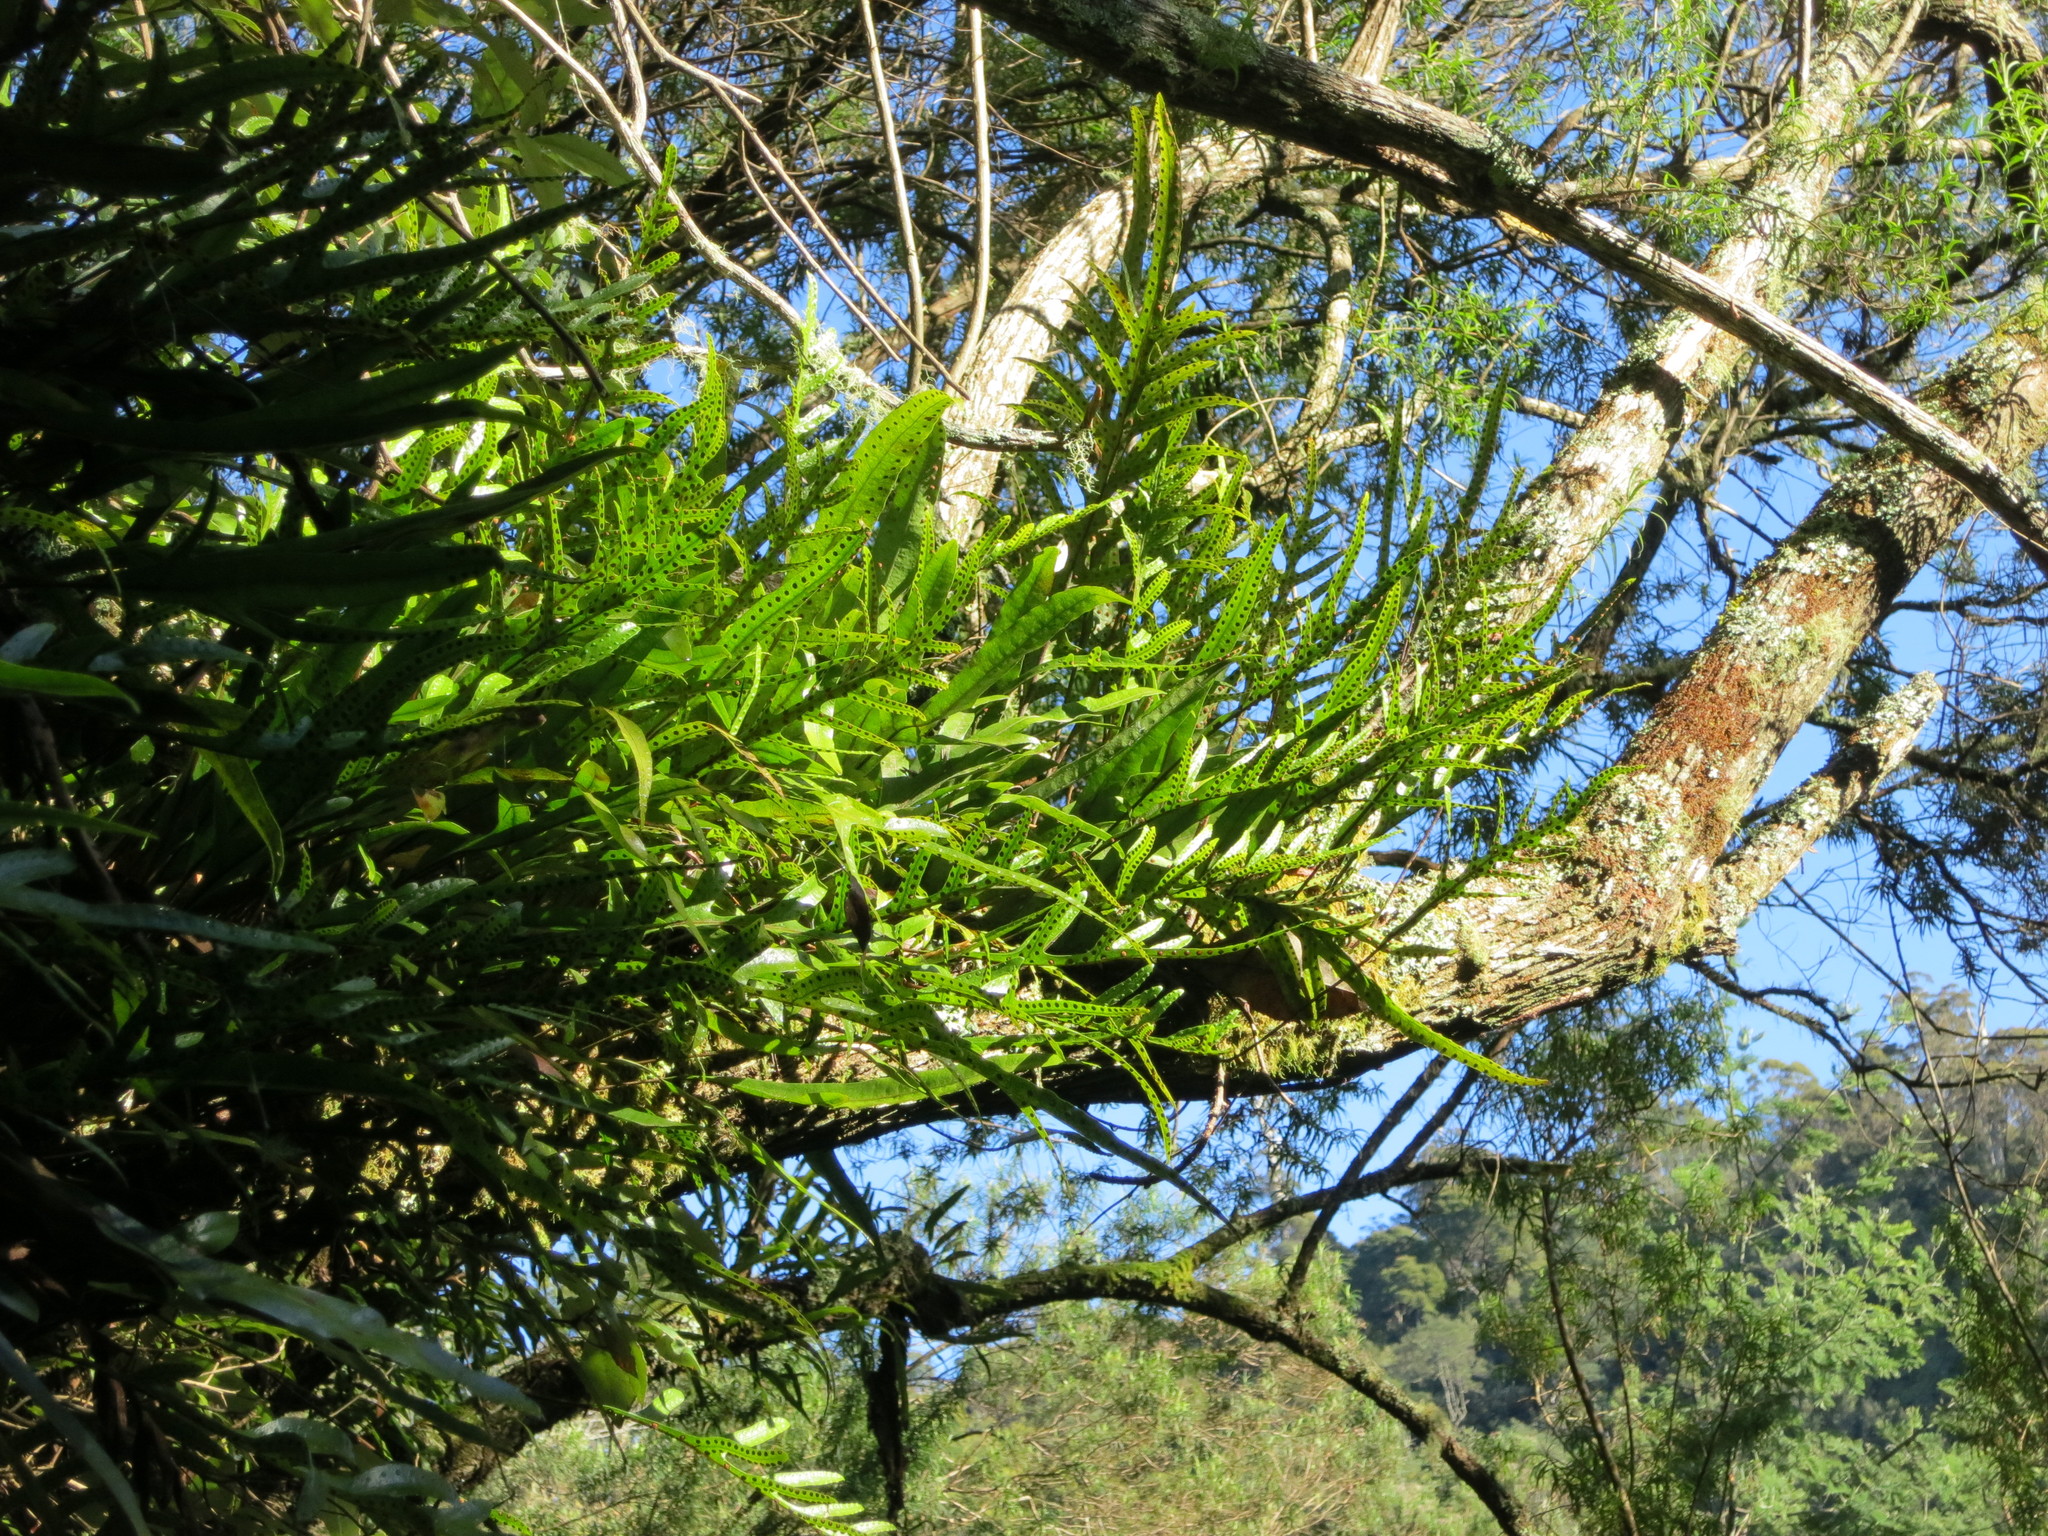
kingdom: Plantae
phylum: Tracheophyta
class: Polypodiopsida
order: Polypodiales
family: Polypodiaceae
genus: Lecanopteris
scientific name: Lecanopteris pustulata
